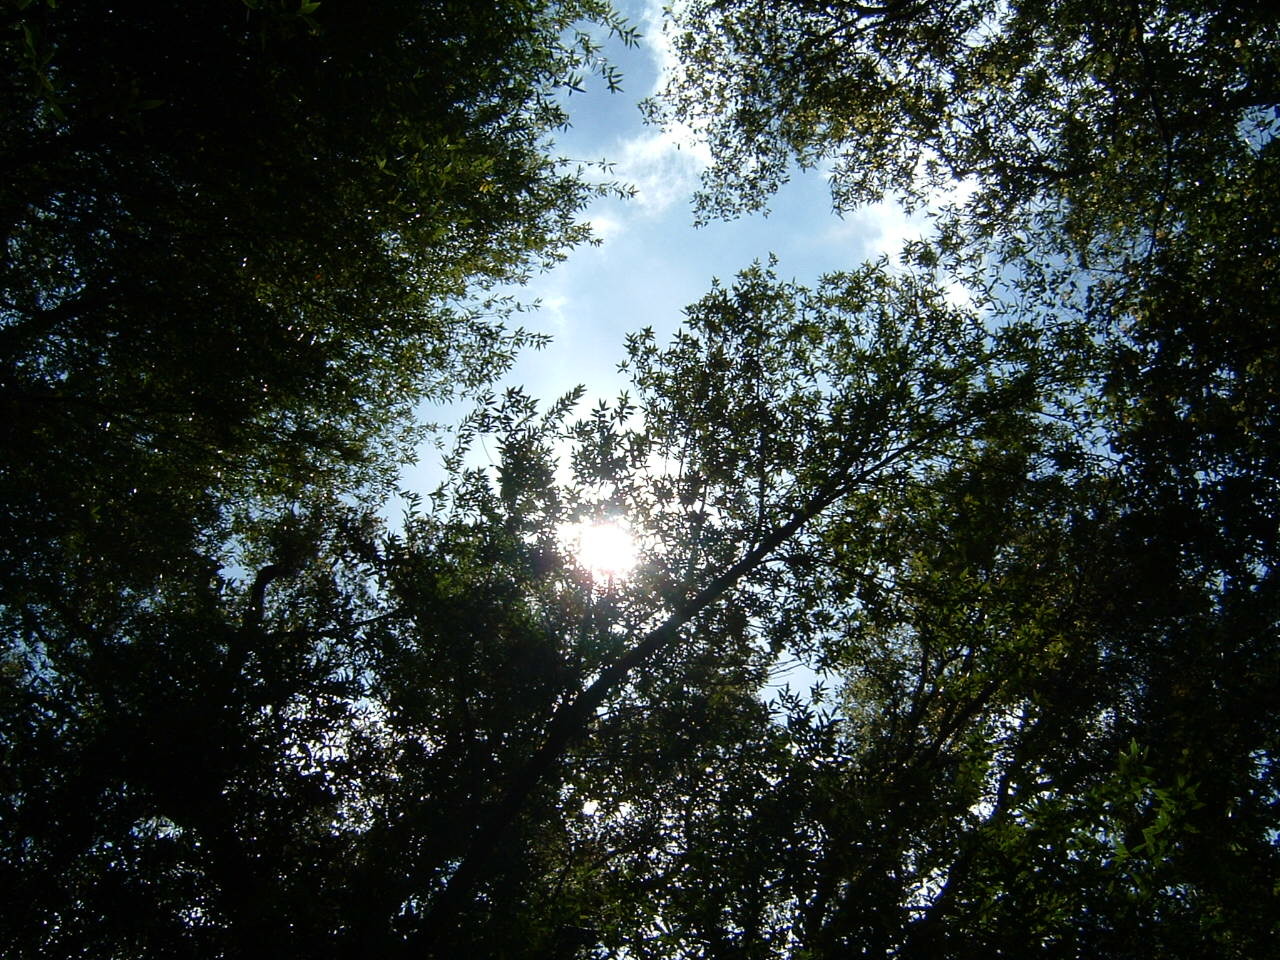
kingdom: Plantae
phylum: Tracheophyta
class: Magnoliopsida
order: Laurales
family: Lauraceae
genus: Umbellularia
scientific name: Umbellularia californica
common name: California bay
